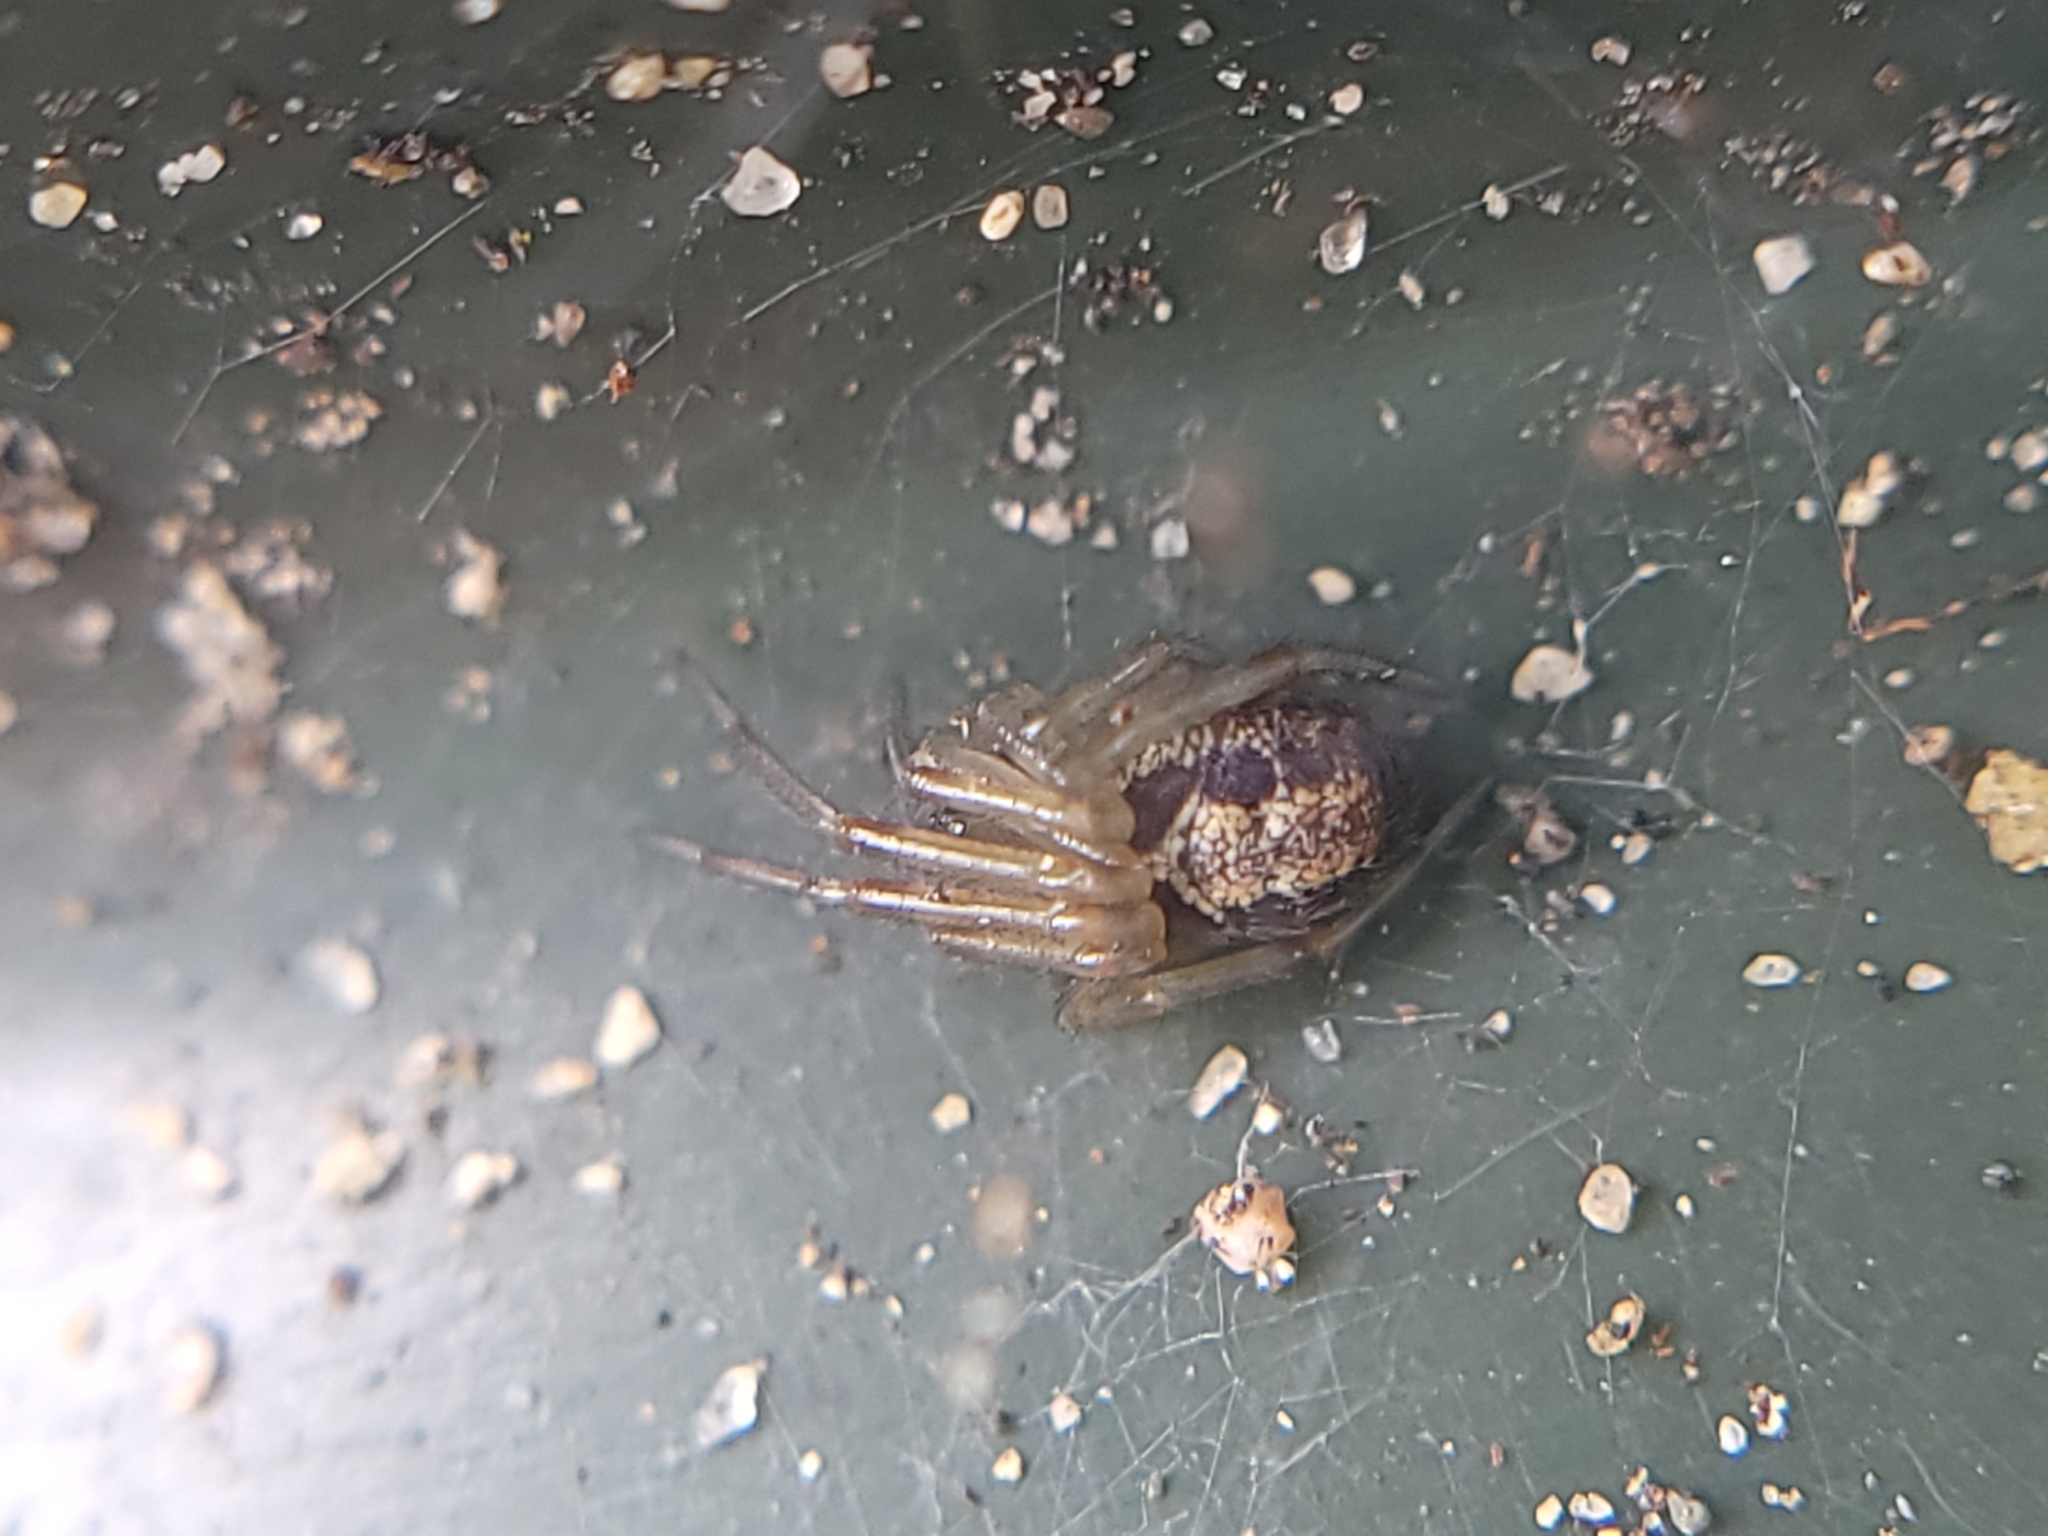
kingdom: Animalia
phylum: Arthropoda
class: Arachnida
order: Araneae
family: Theridiidae
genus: Steatoda
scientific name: Steatoda nobilis
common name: Cobweb weaver
